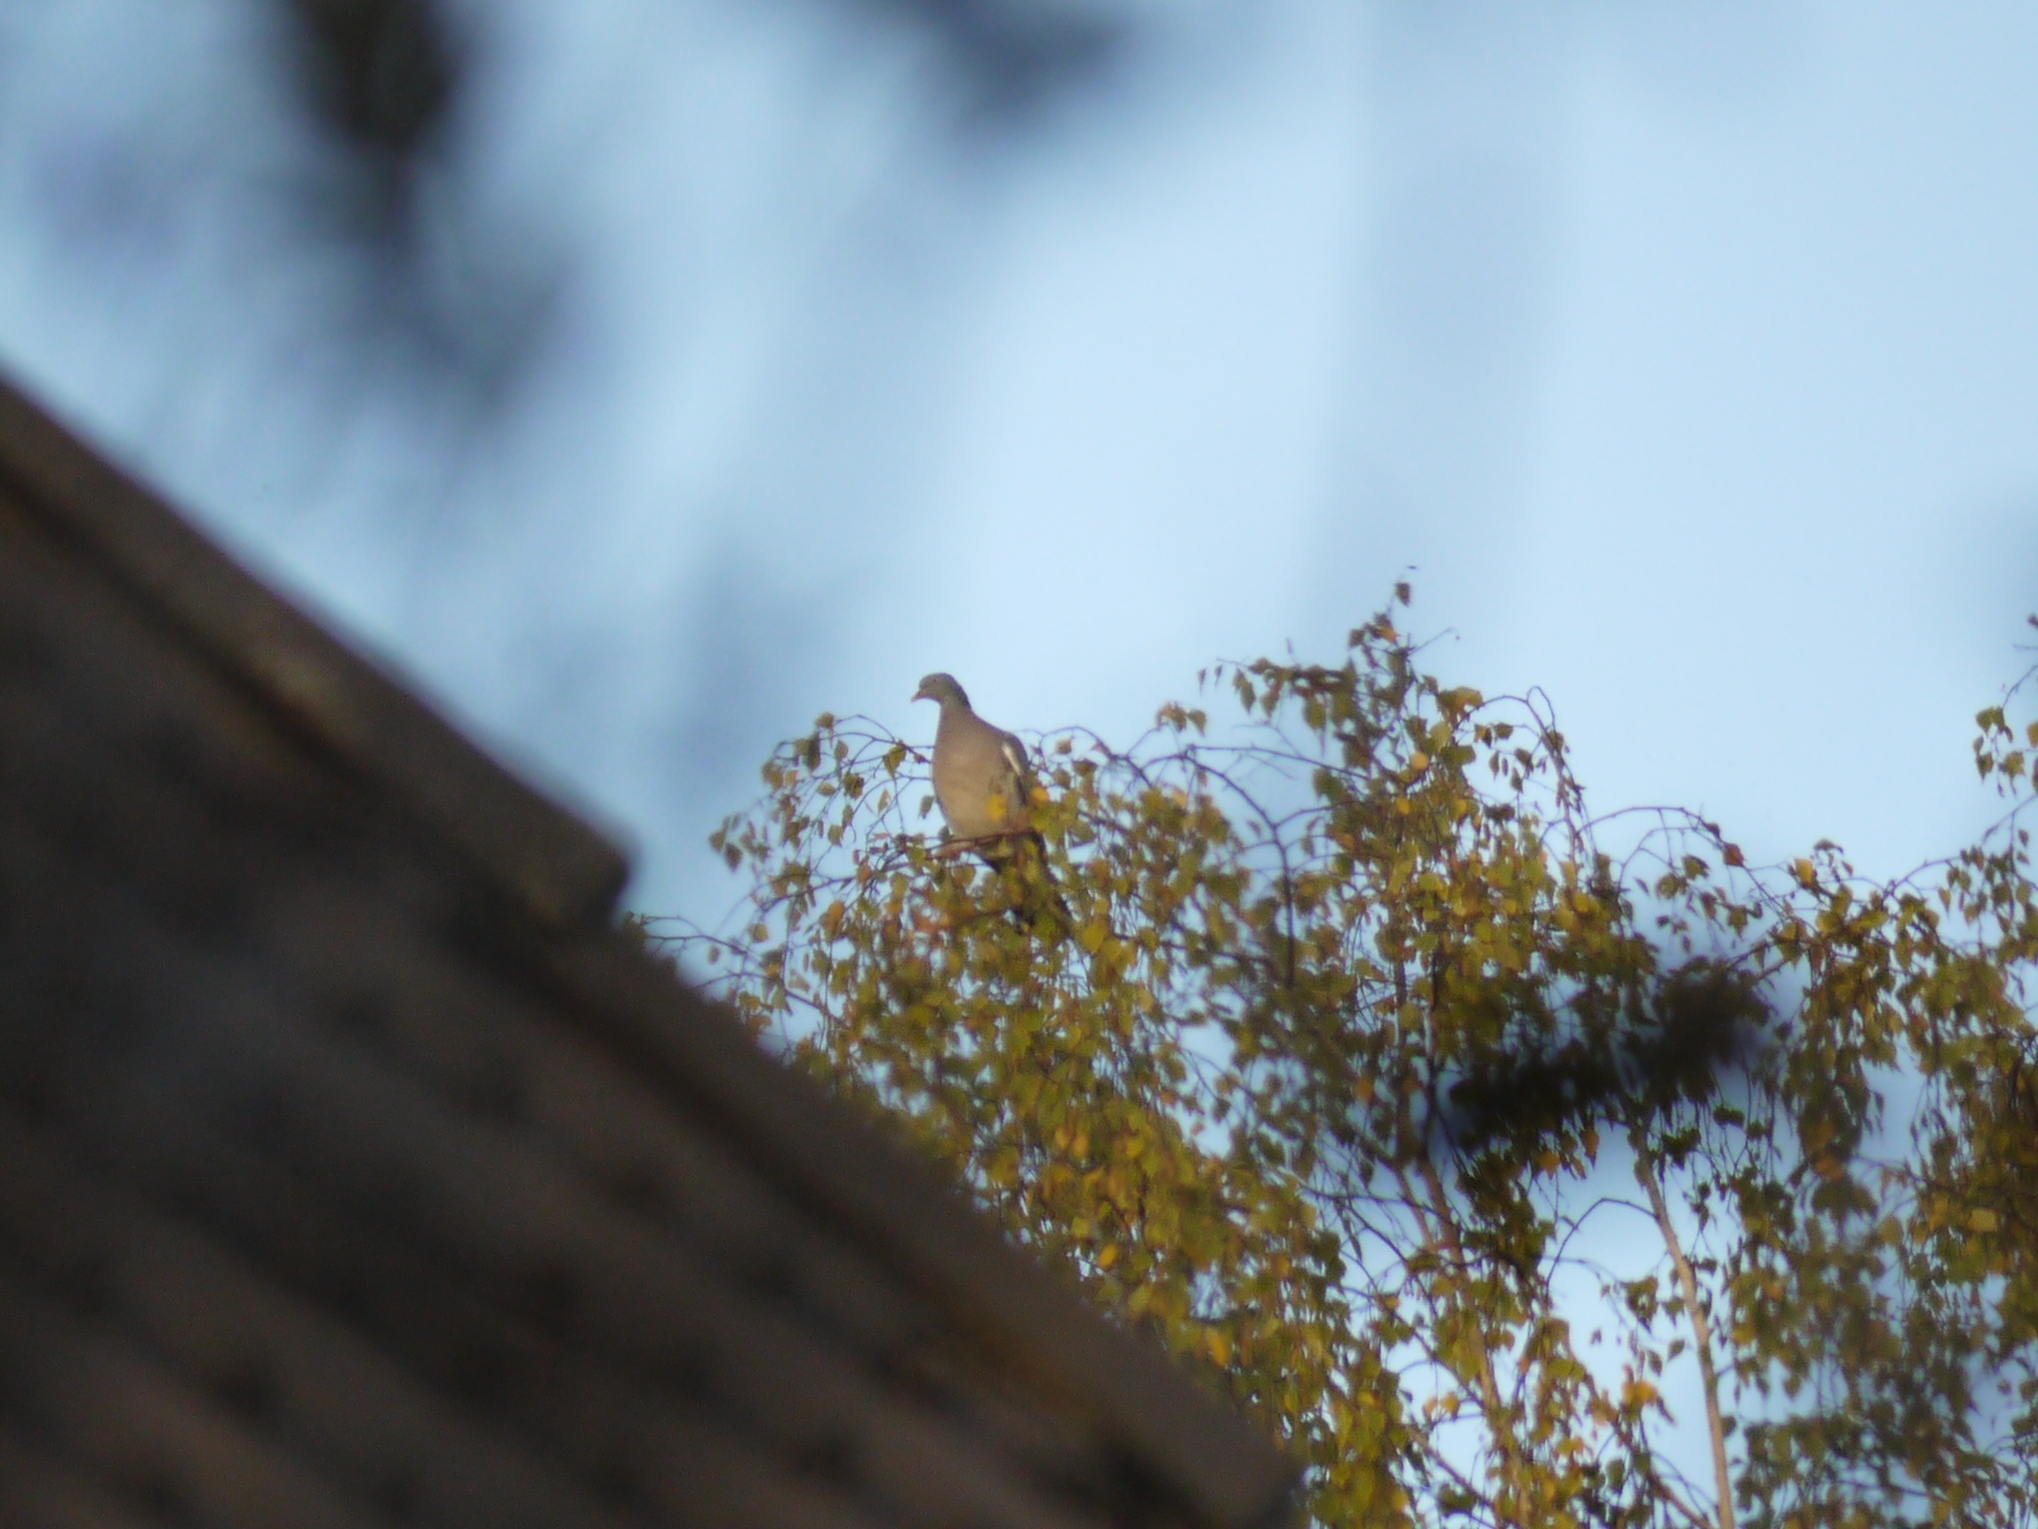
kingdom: Animalia
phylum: Chordata
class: Aves
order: Columbiformes
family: Columbidae
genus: Columba
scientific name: Columba palumbus
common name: Common wood pigeon
